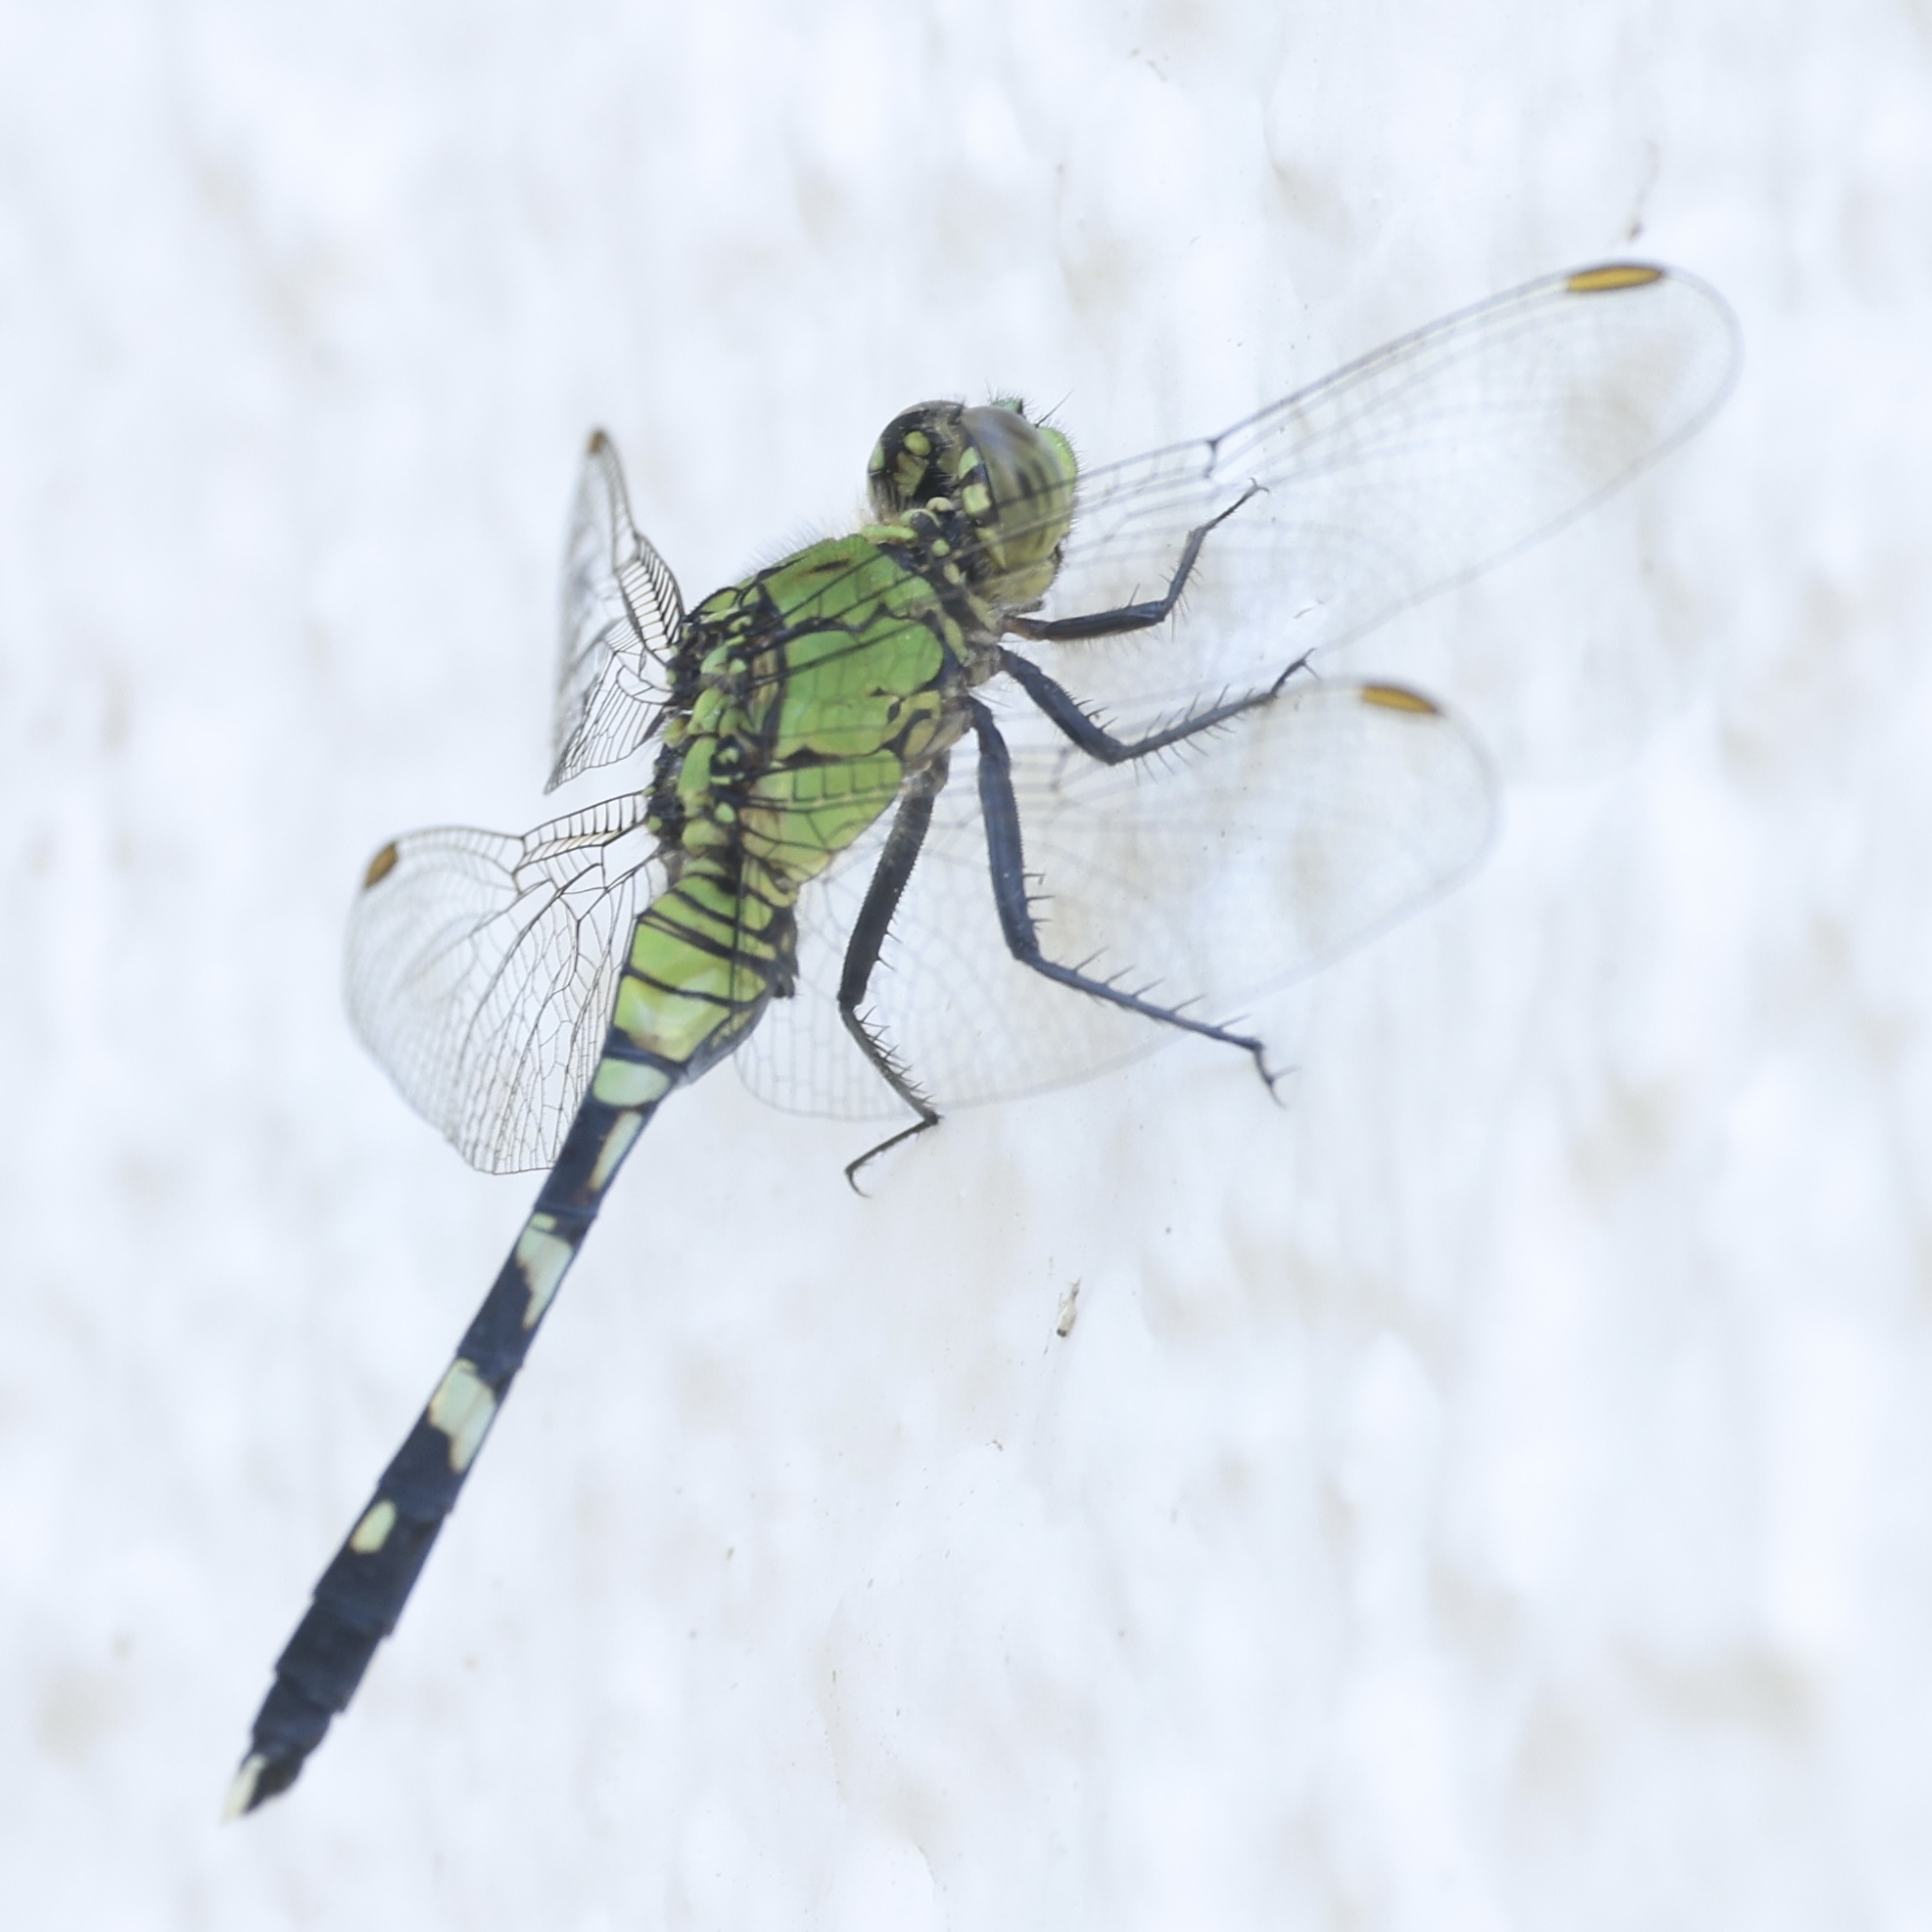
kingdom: Animalia
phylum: Arthropoda
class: Insecta
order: Odonata
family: Libellulidae
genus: Erythemis
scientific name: Erythemis simplicicollis
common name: Eastern pondhawk
